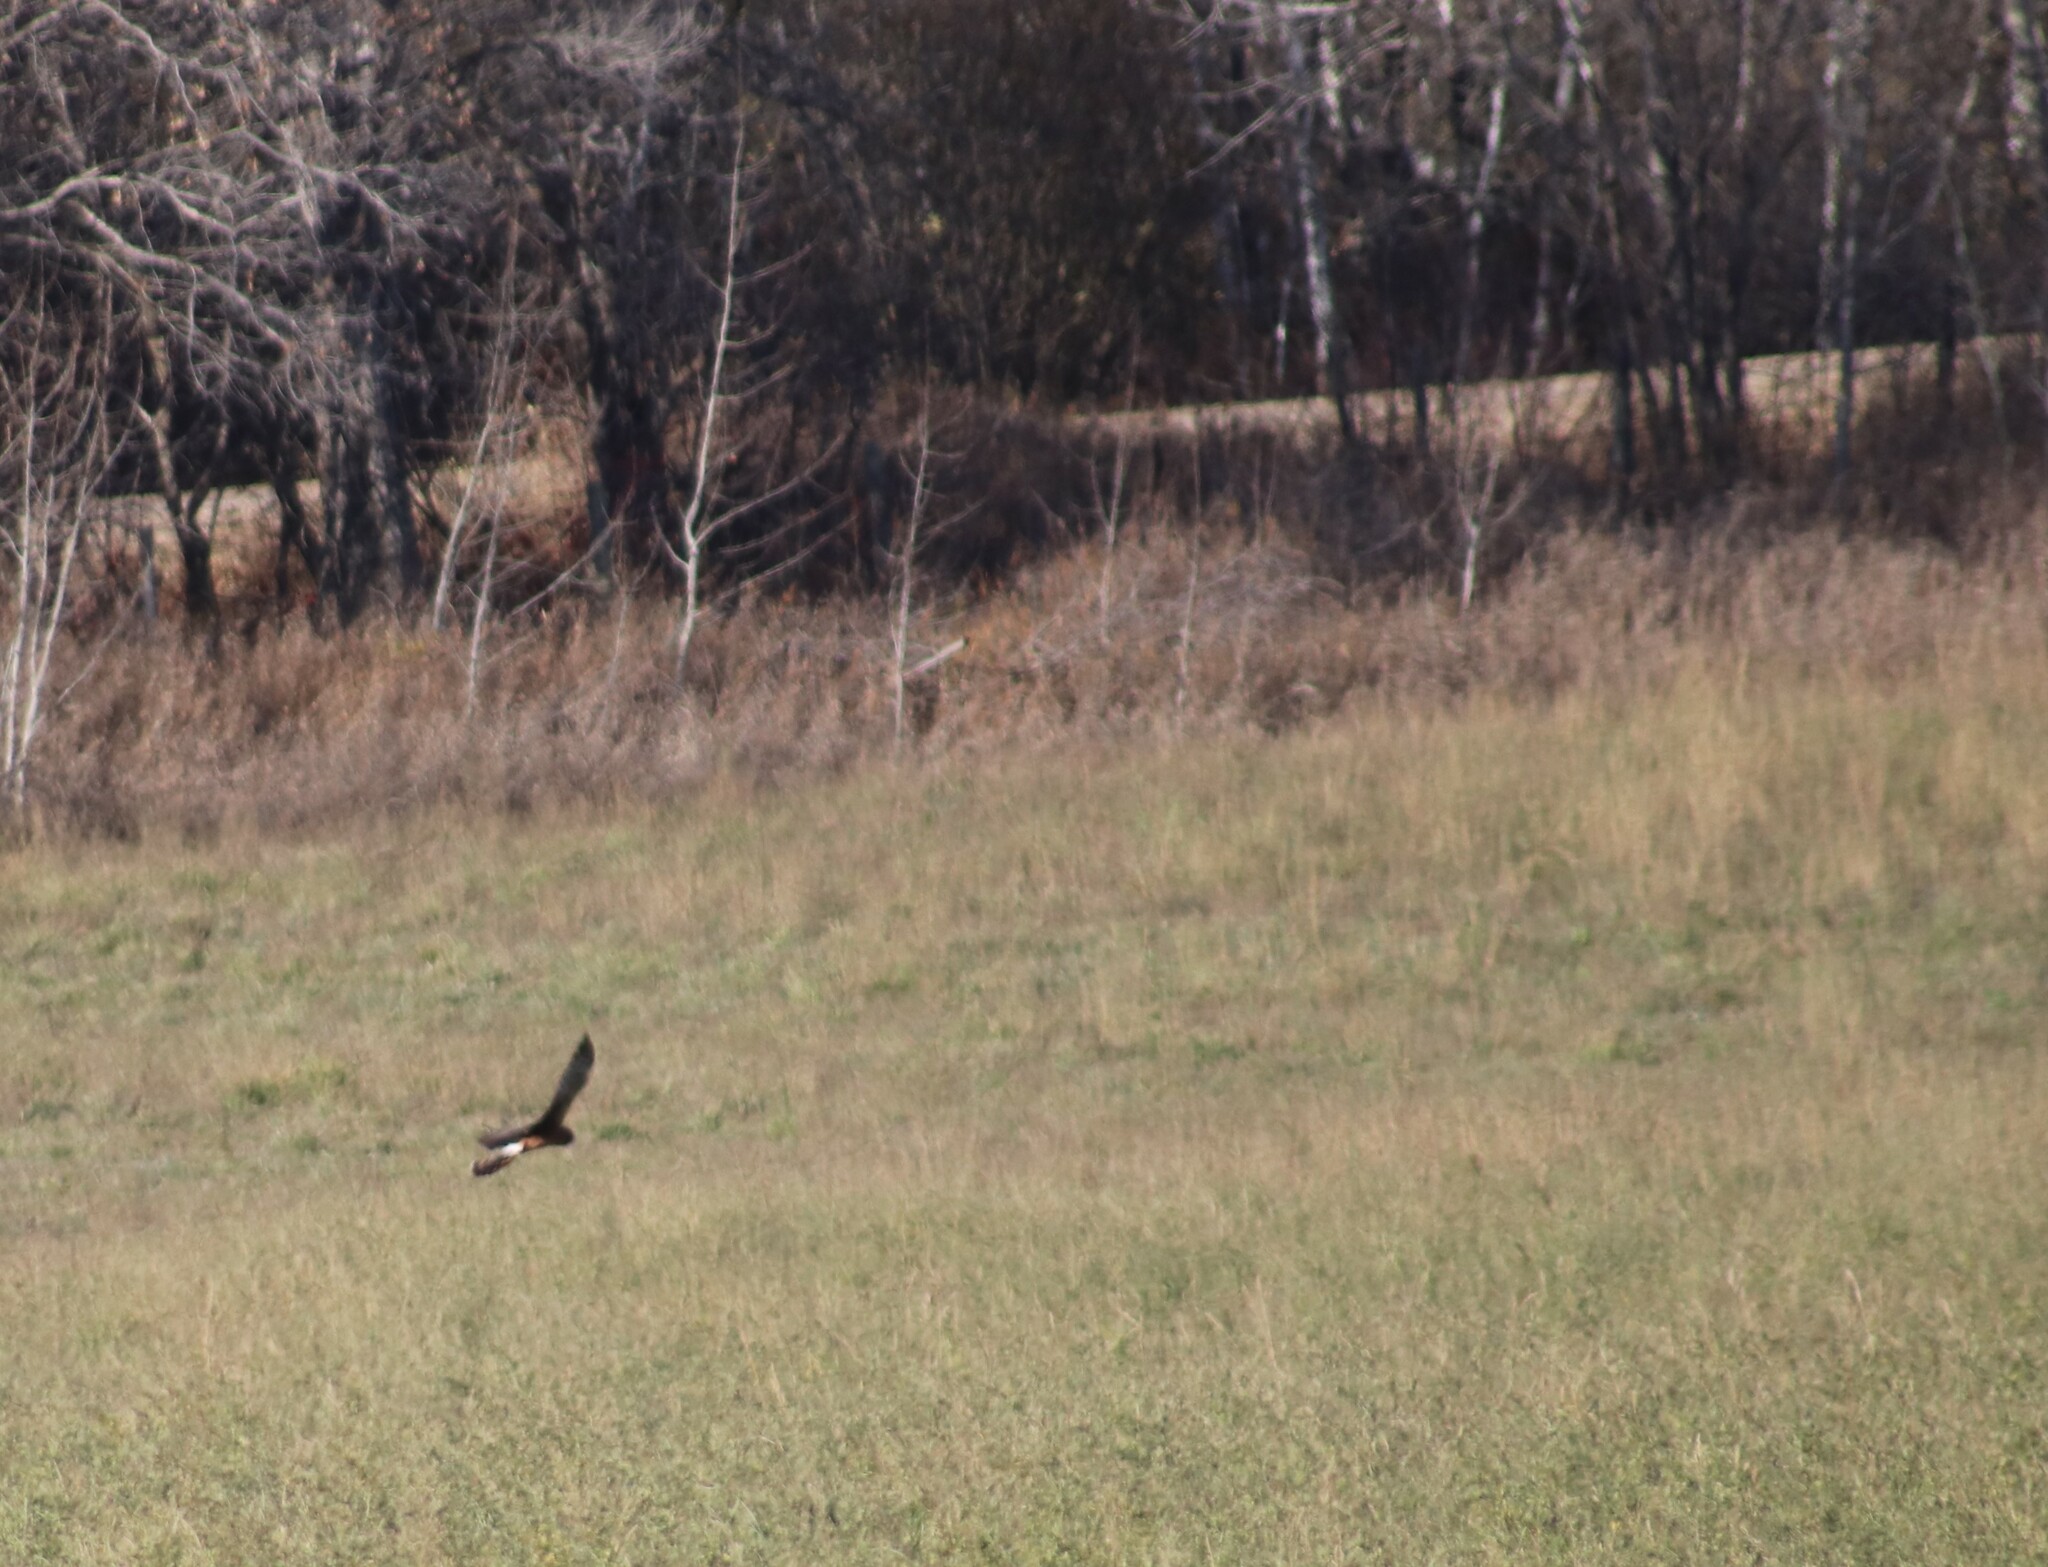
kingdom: Animalia
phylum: Chordata
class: Aves
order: Accipitriformes
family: Accipitridae
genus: Circus
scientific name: Circus cyaneus
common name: Hen harrier
